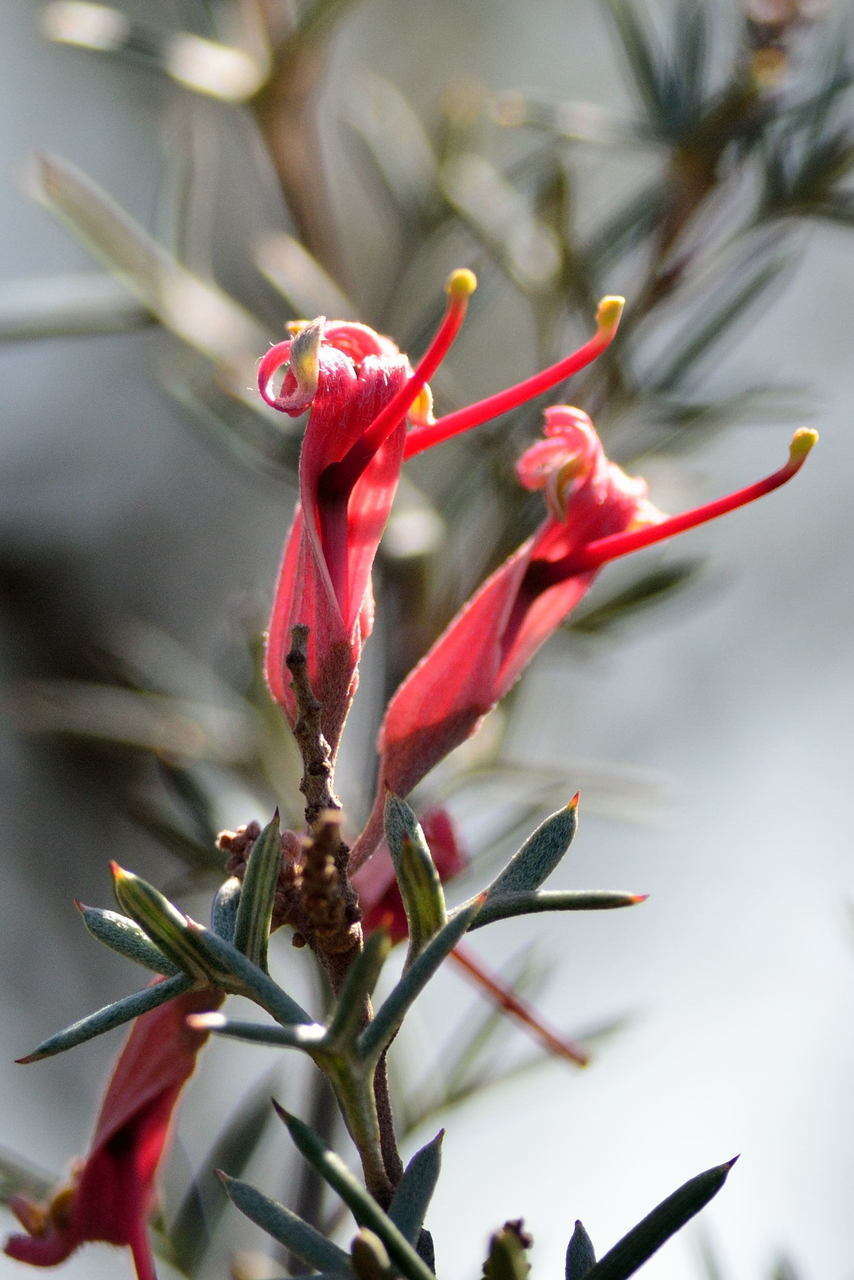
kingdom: Plantae
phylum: Tracheophyta
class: Magnoliopsida
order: Proteales
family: Proteaceae
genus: Grevillea
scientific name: Grevillea huegelii
